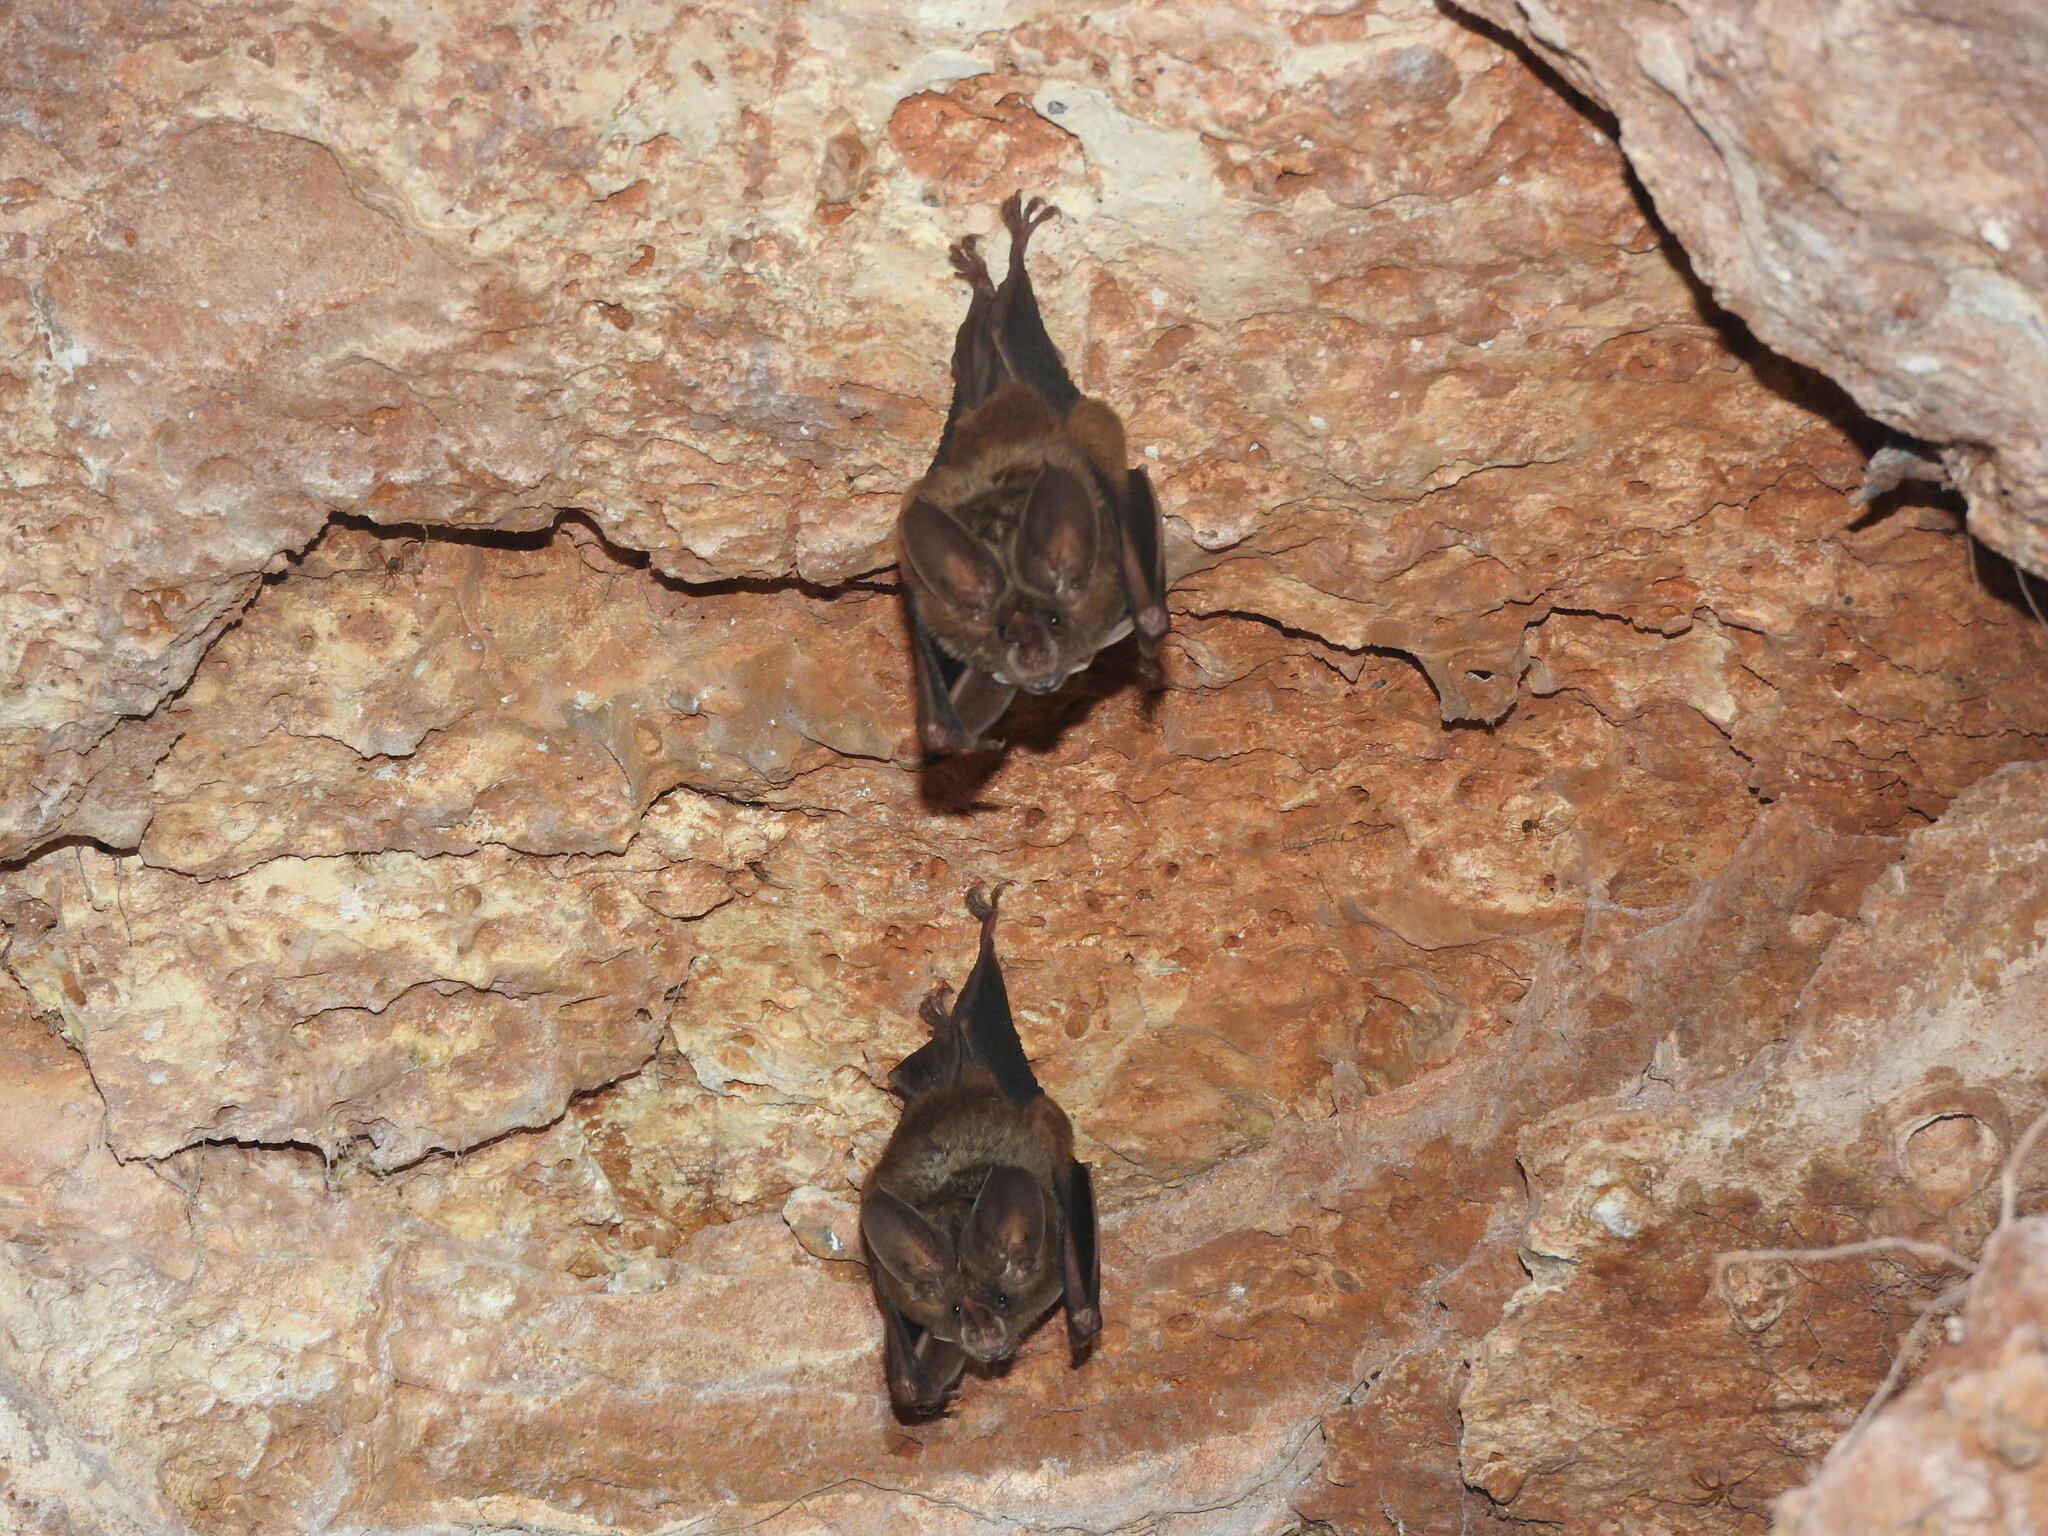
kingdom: Animalia
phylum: Chordata
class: Mammalia
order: Chiroptera
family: Phyllostomidae
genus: Mimon
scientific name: Mimon cozumelae
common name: Cozumelan golden bat
